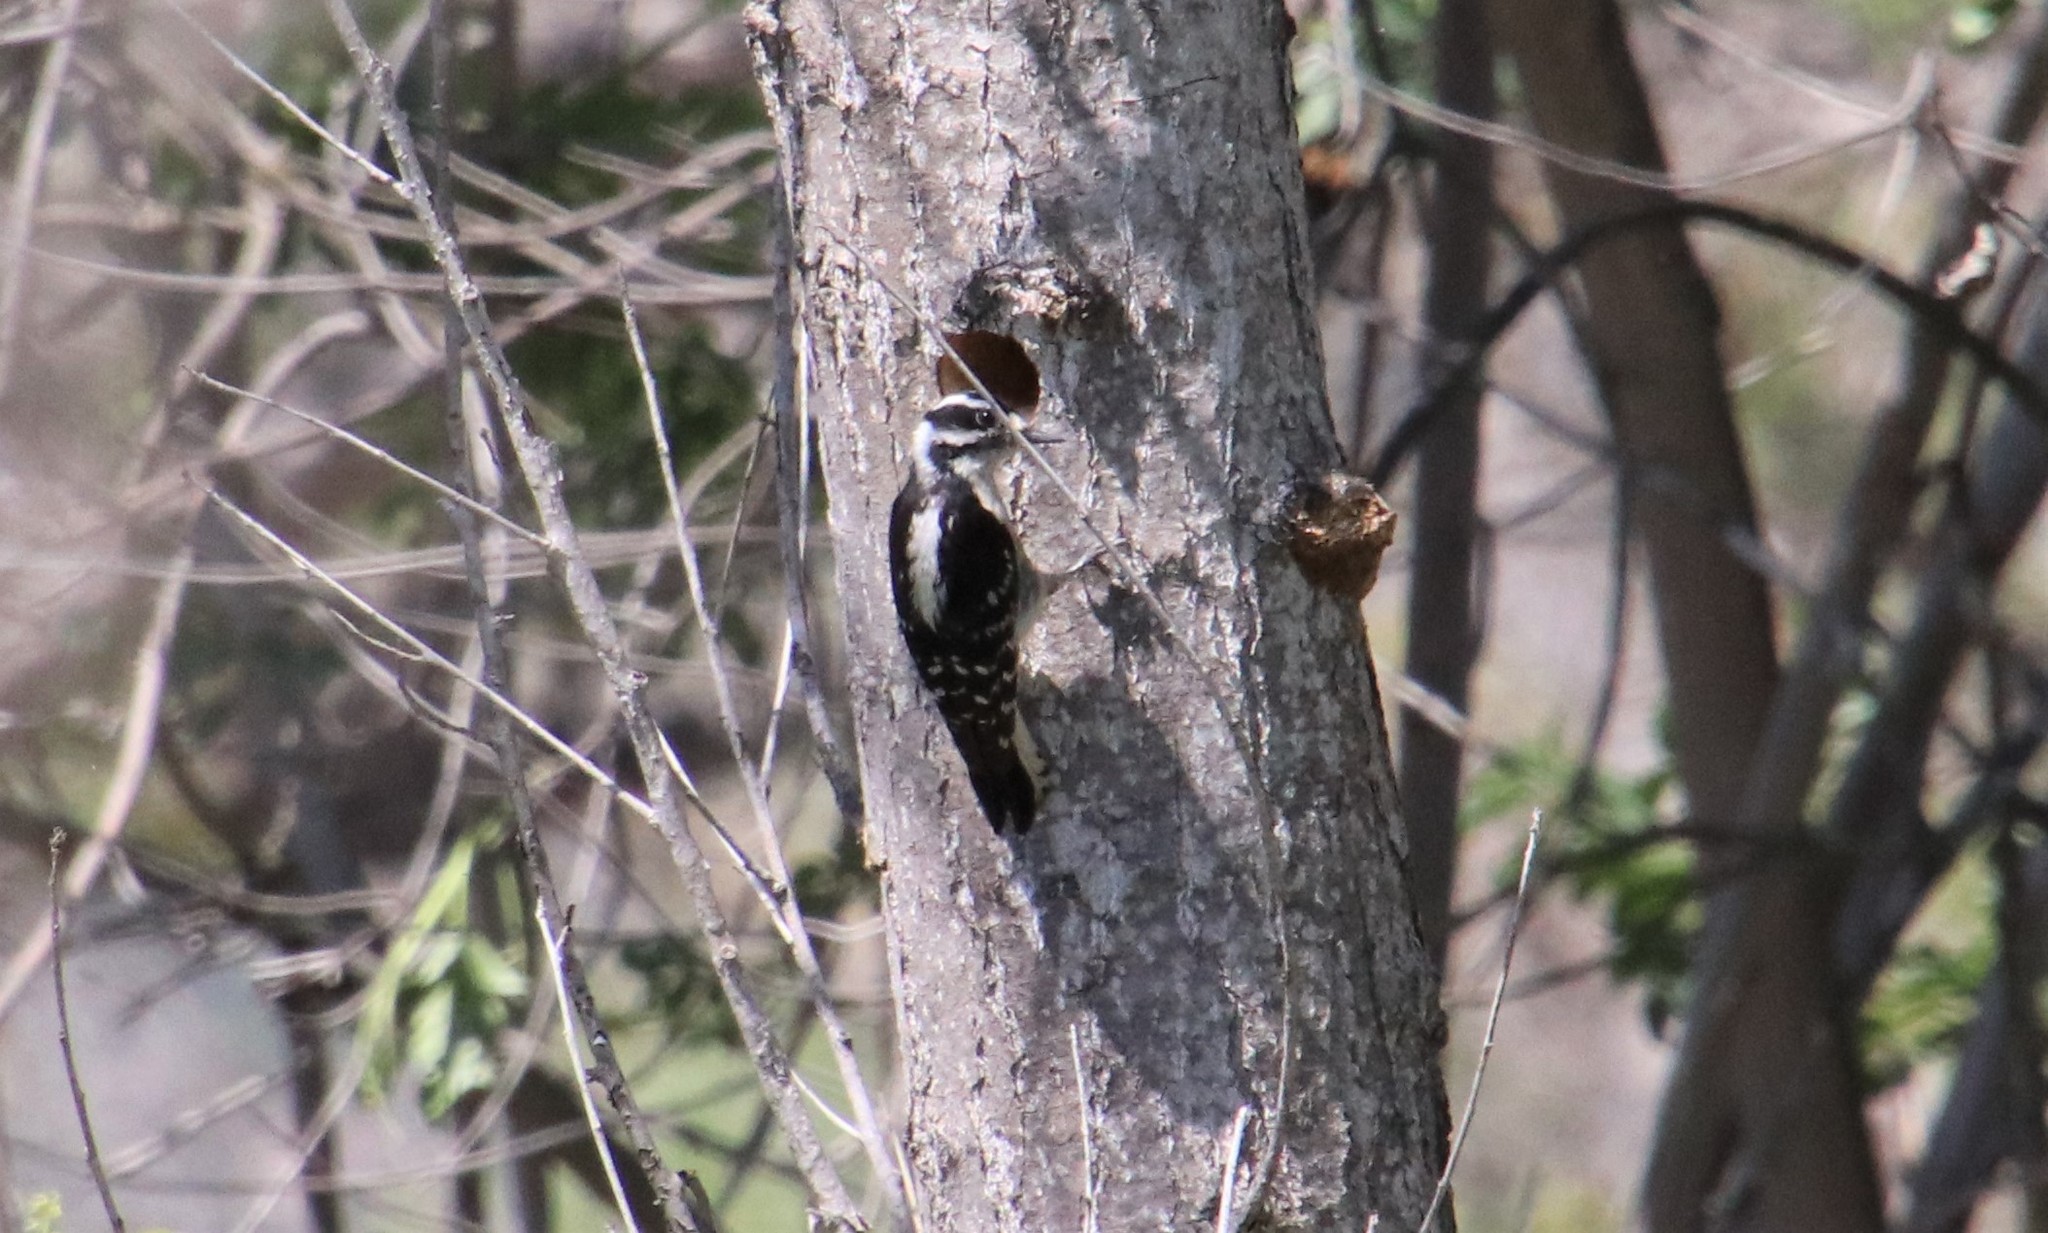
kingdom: Animalia
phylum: Chordata
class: Aves
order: Piciformes
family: Picidae
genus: Dryobates
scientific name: Dryobates pubescens
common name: Downy woodpecker
